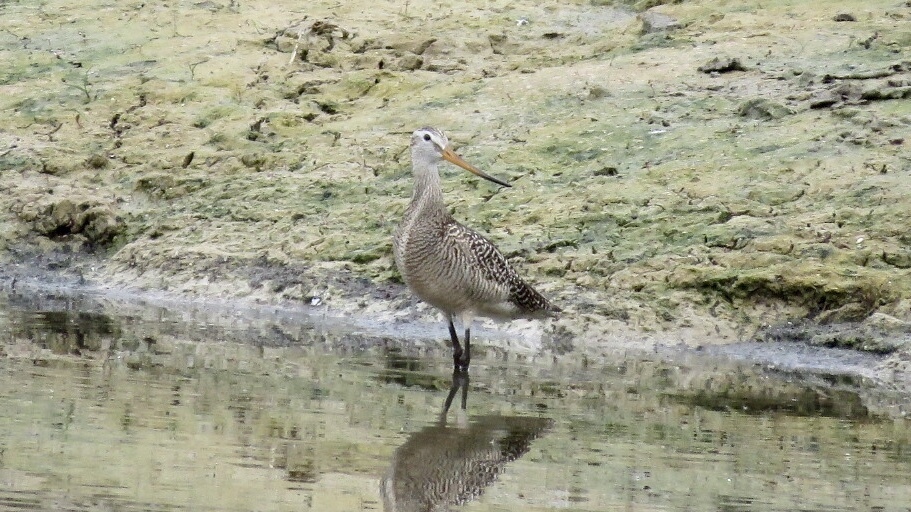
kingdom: Animalia
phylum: Chordata
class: Aves
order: Charadriiformes
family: Scolopacidae
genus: Limosa
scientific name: Limosa fedoa
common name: Marbled godwit
